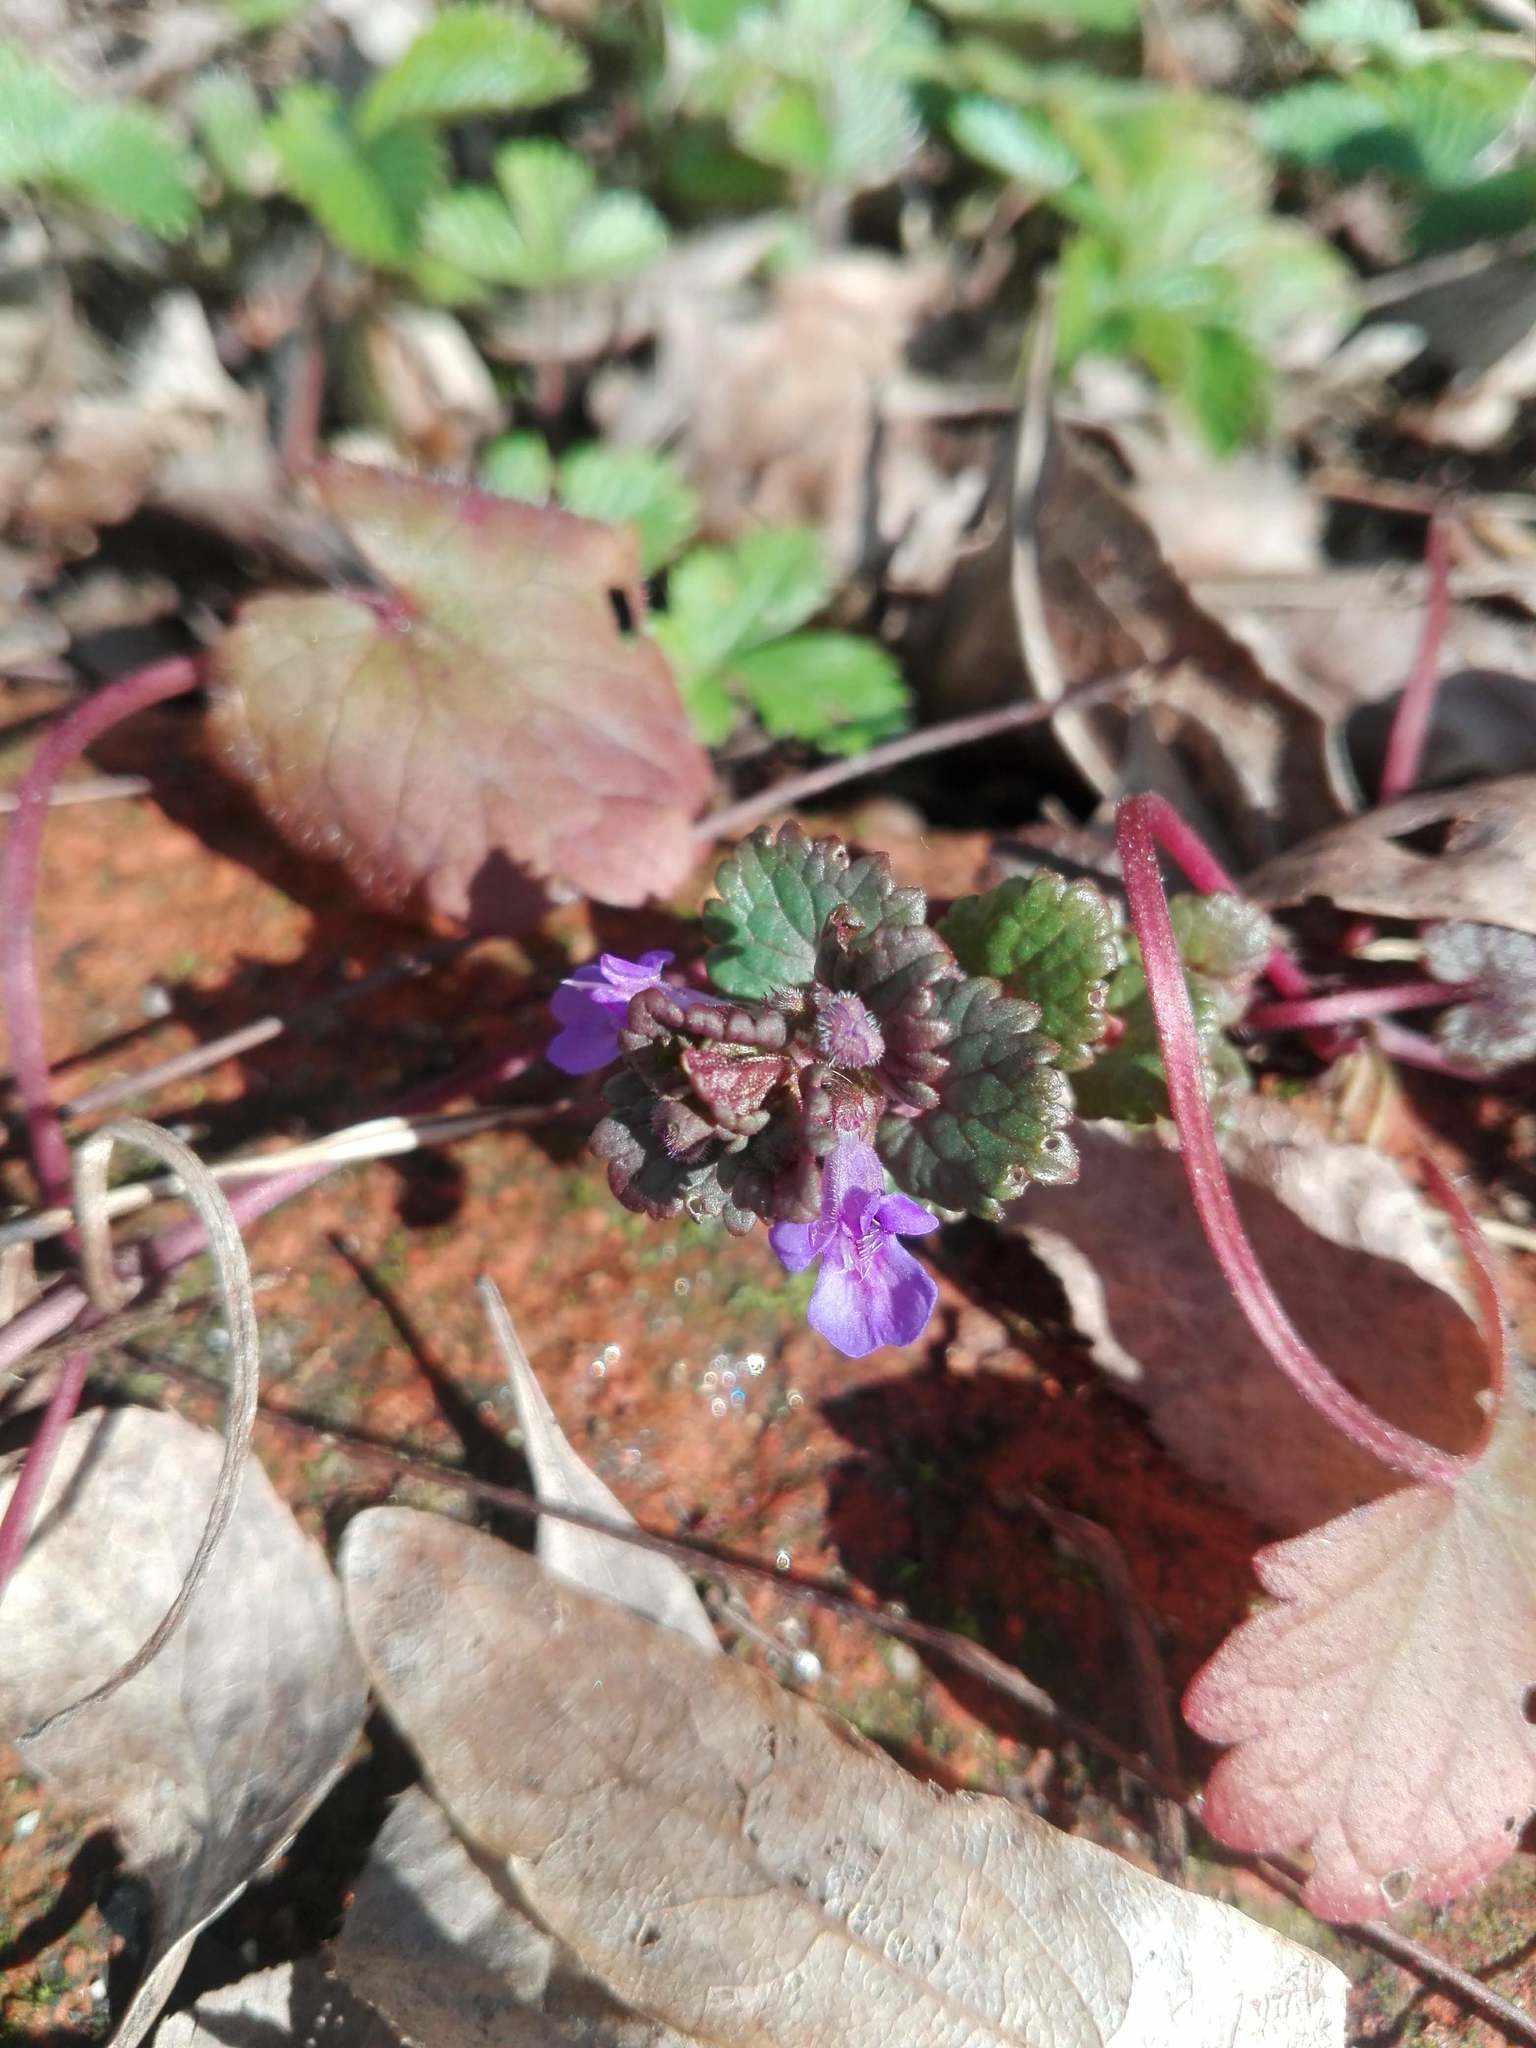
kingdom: Plantae
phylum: Tracheophyta
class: Magnoliopsida
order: Lamiales
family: Lamiaceae
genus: Glechoma
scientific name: Glechoma hederacea
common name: Ground ivy
